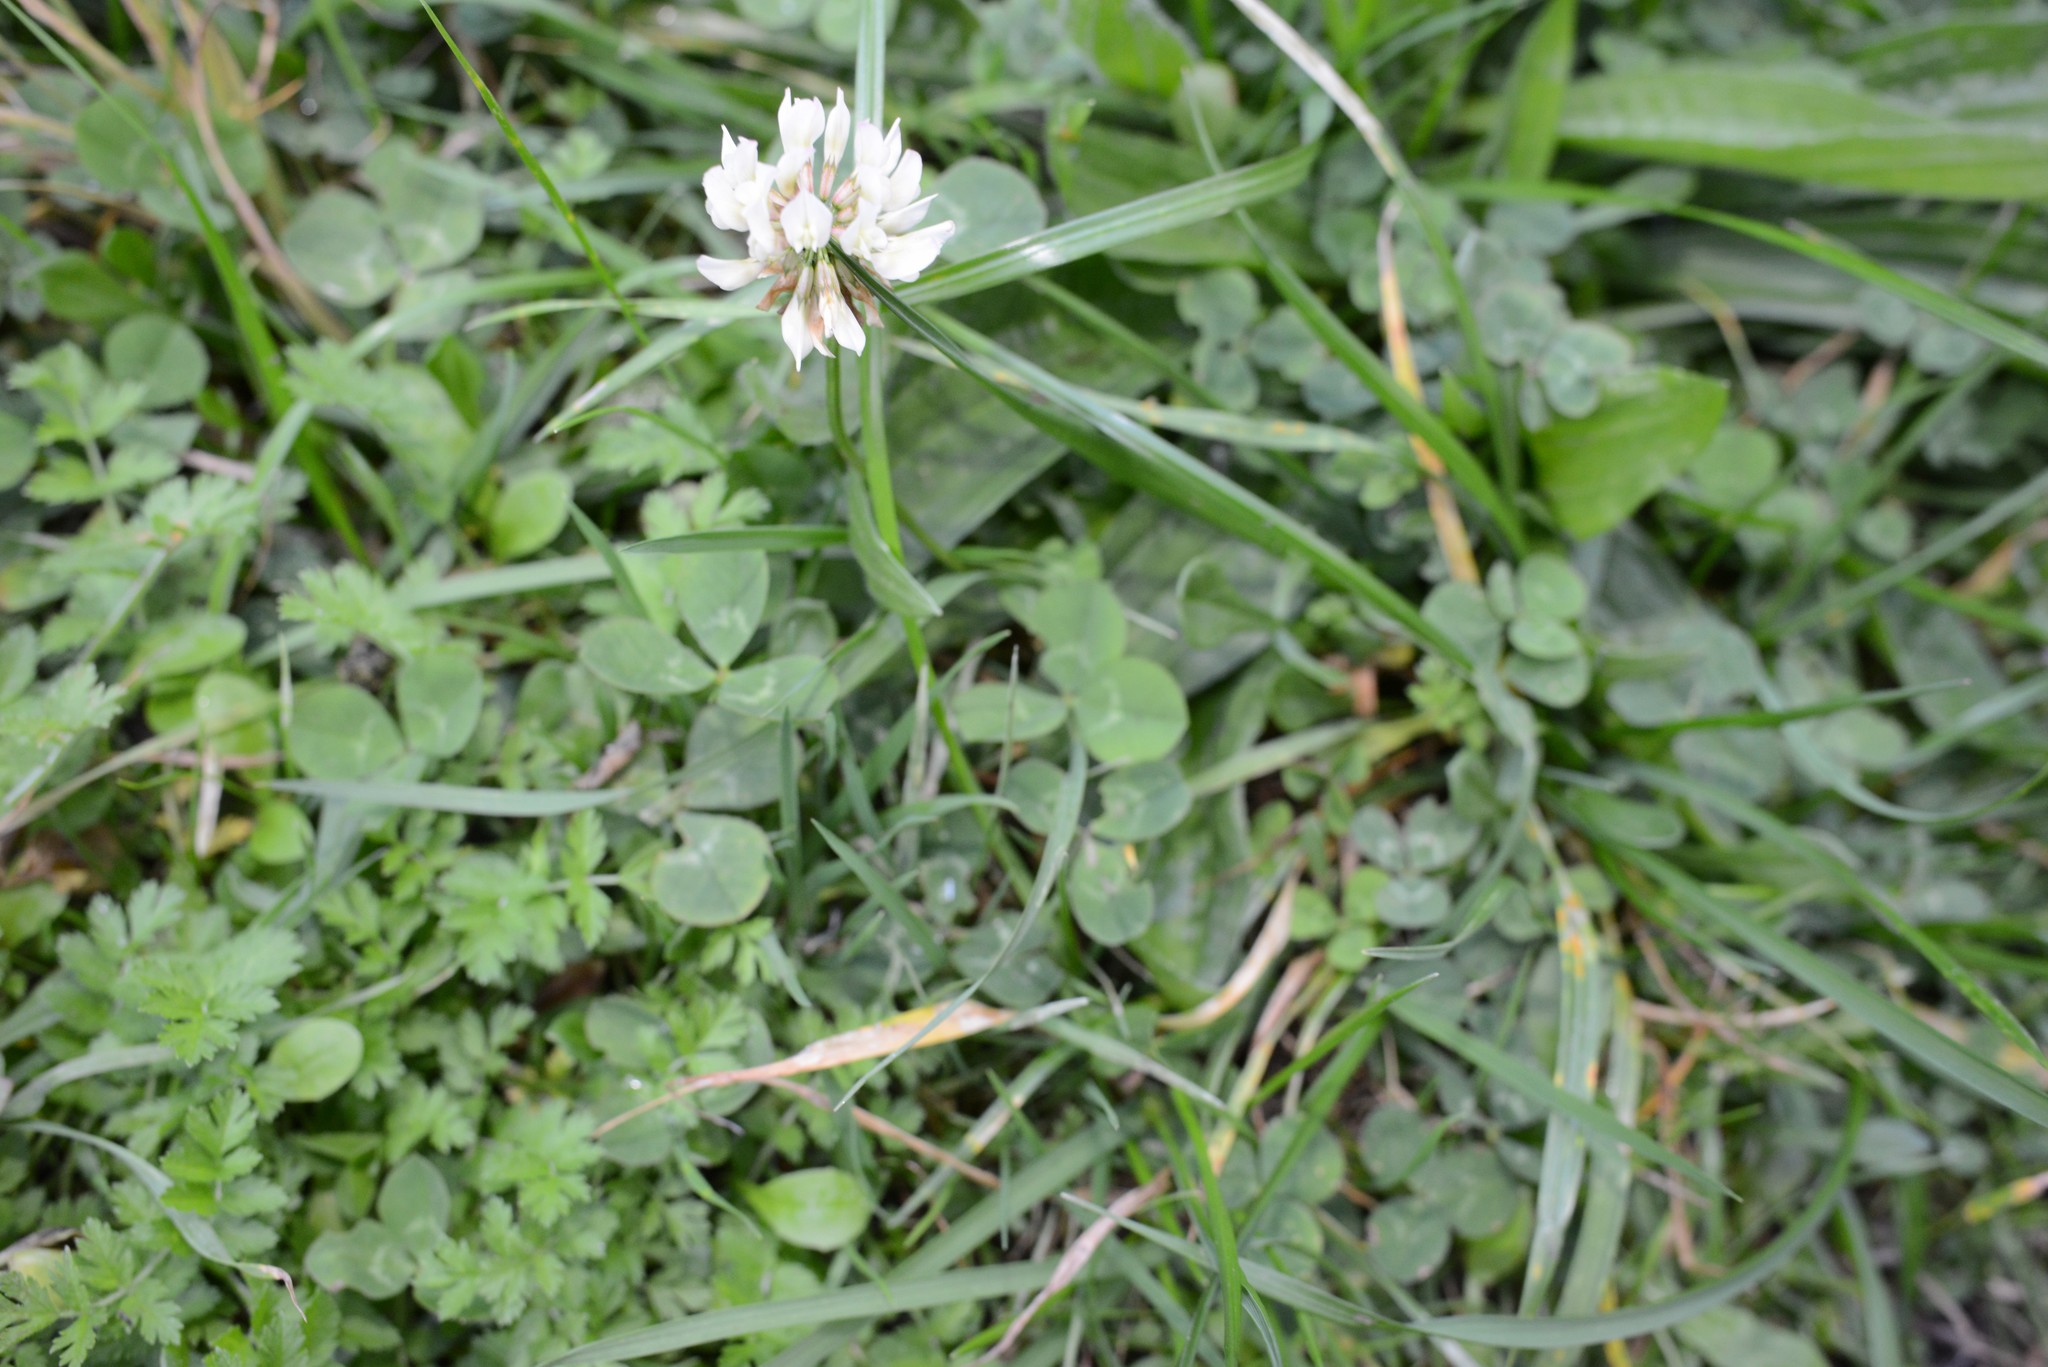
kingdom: Plantae
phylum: Tracheophyta
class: Magnoliopsida
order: Fabales
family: Fabaceae
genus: Trifolium
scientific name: Trifolium repens
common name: White clover
